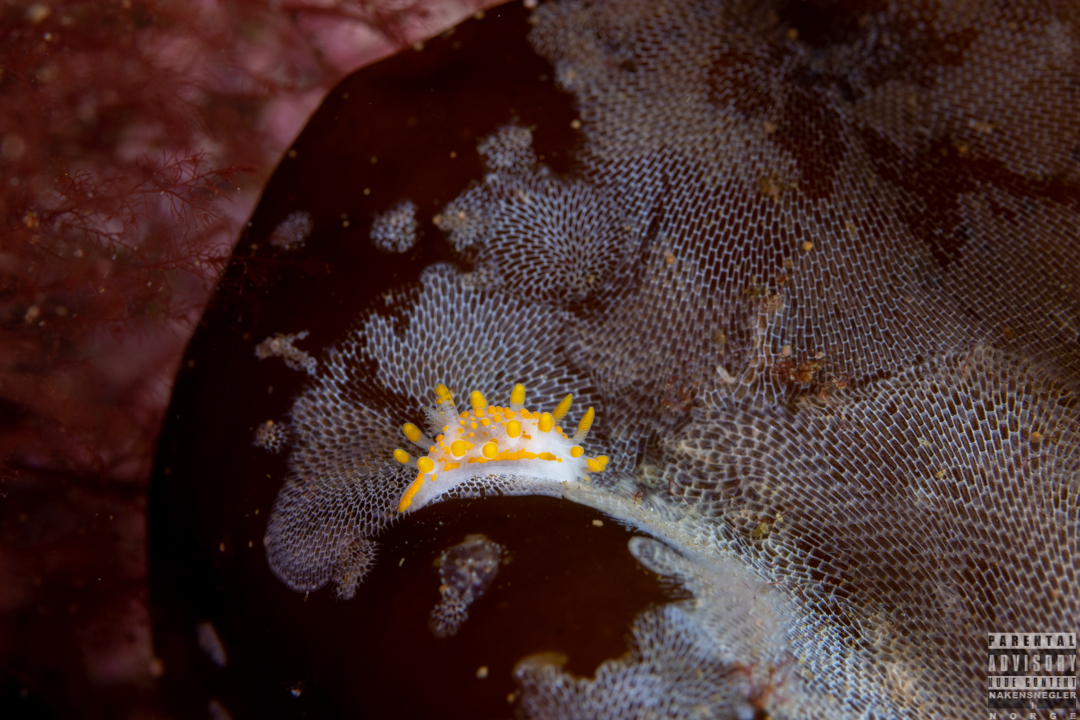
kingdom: Animalia
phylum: Mollusca
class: Gastropoda
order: Nudibranchia
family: Polyceridae
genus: Limacia
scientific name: Limacia clavigera
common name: Orange-clubbed sea slug
